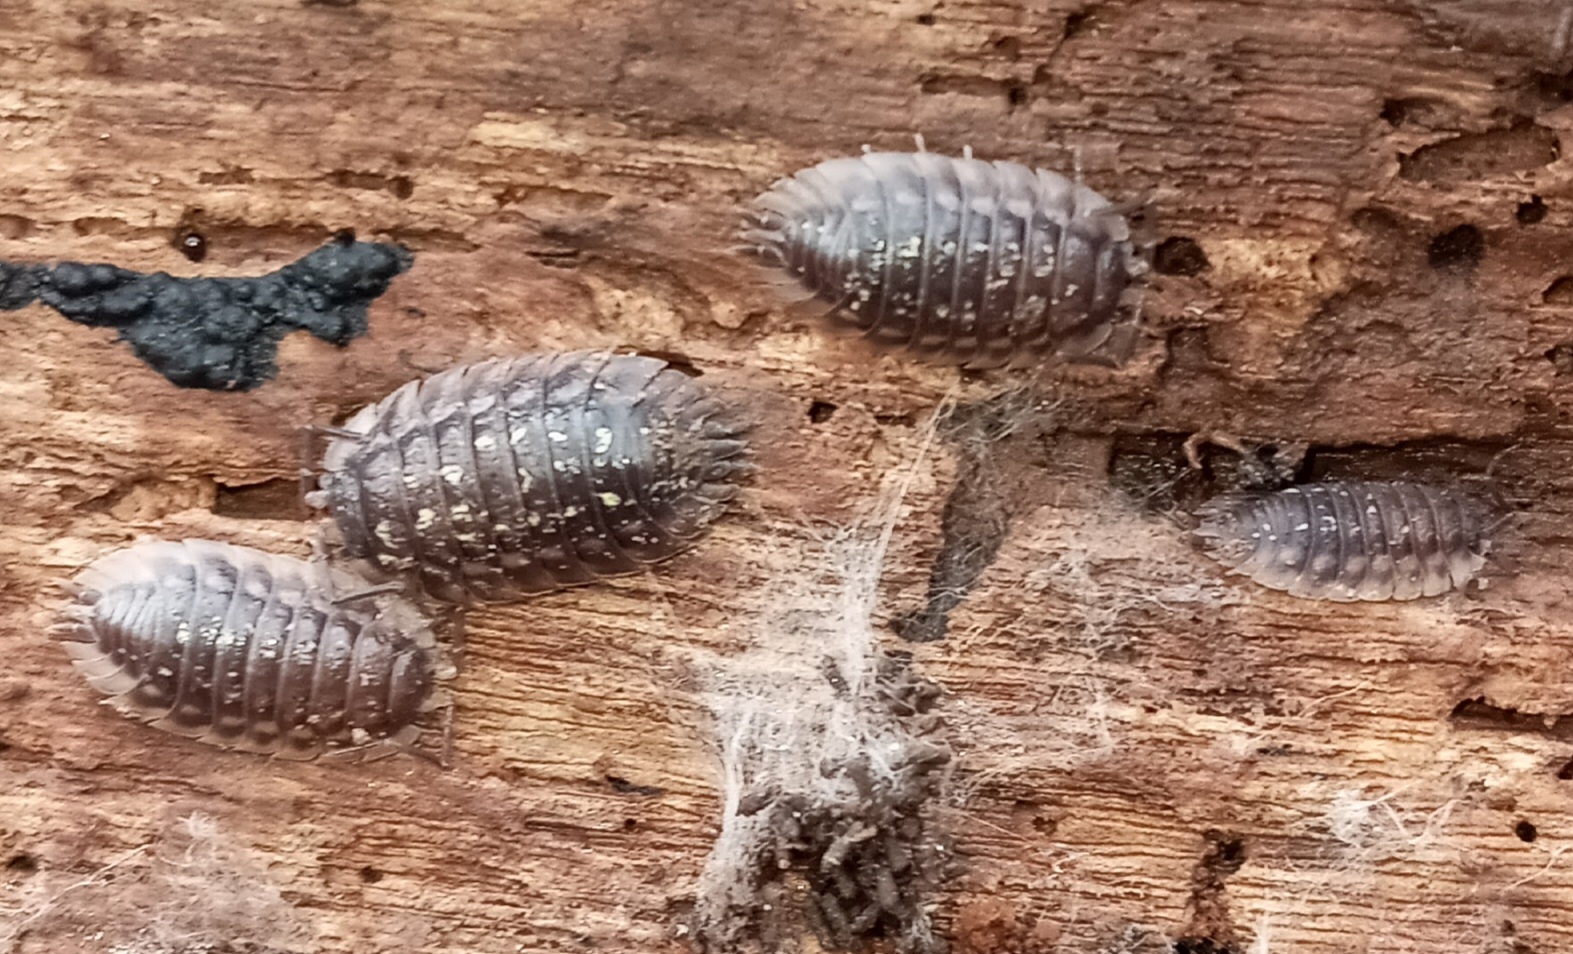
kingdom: Animalia
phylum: Arthropoda
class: Malacostraca
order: Isopoda
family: Oniscidae
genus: Oniscus
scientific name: Oniscus asellus
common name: Common shiny woodlouse
